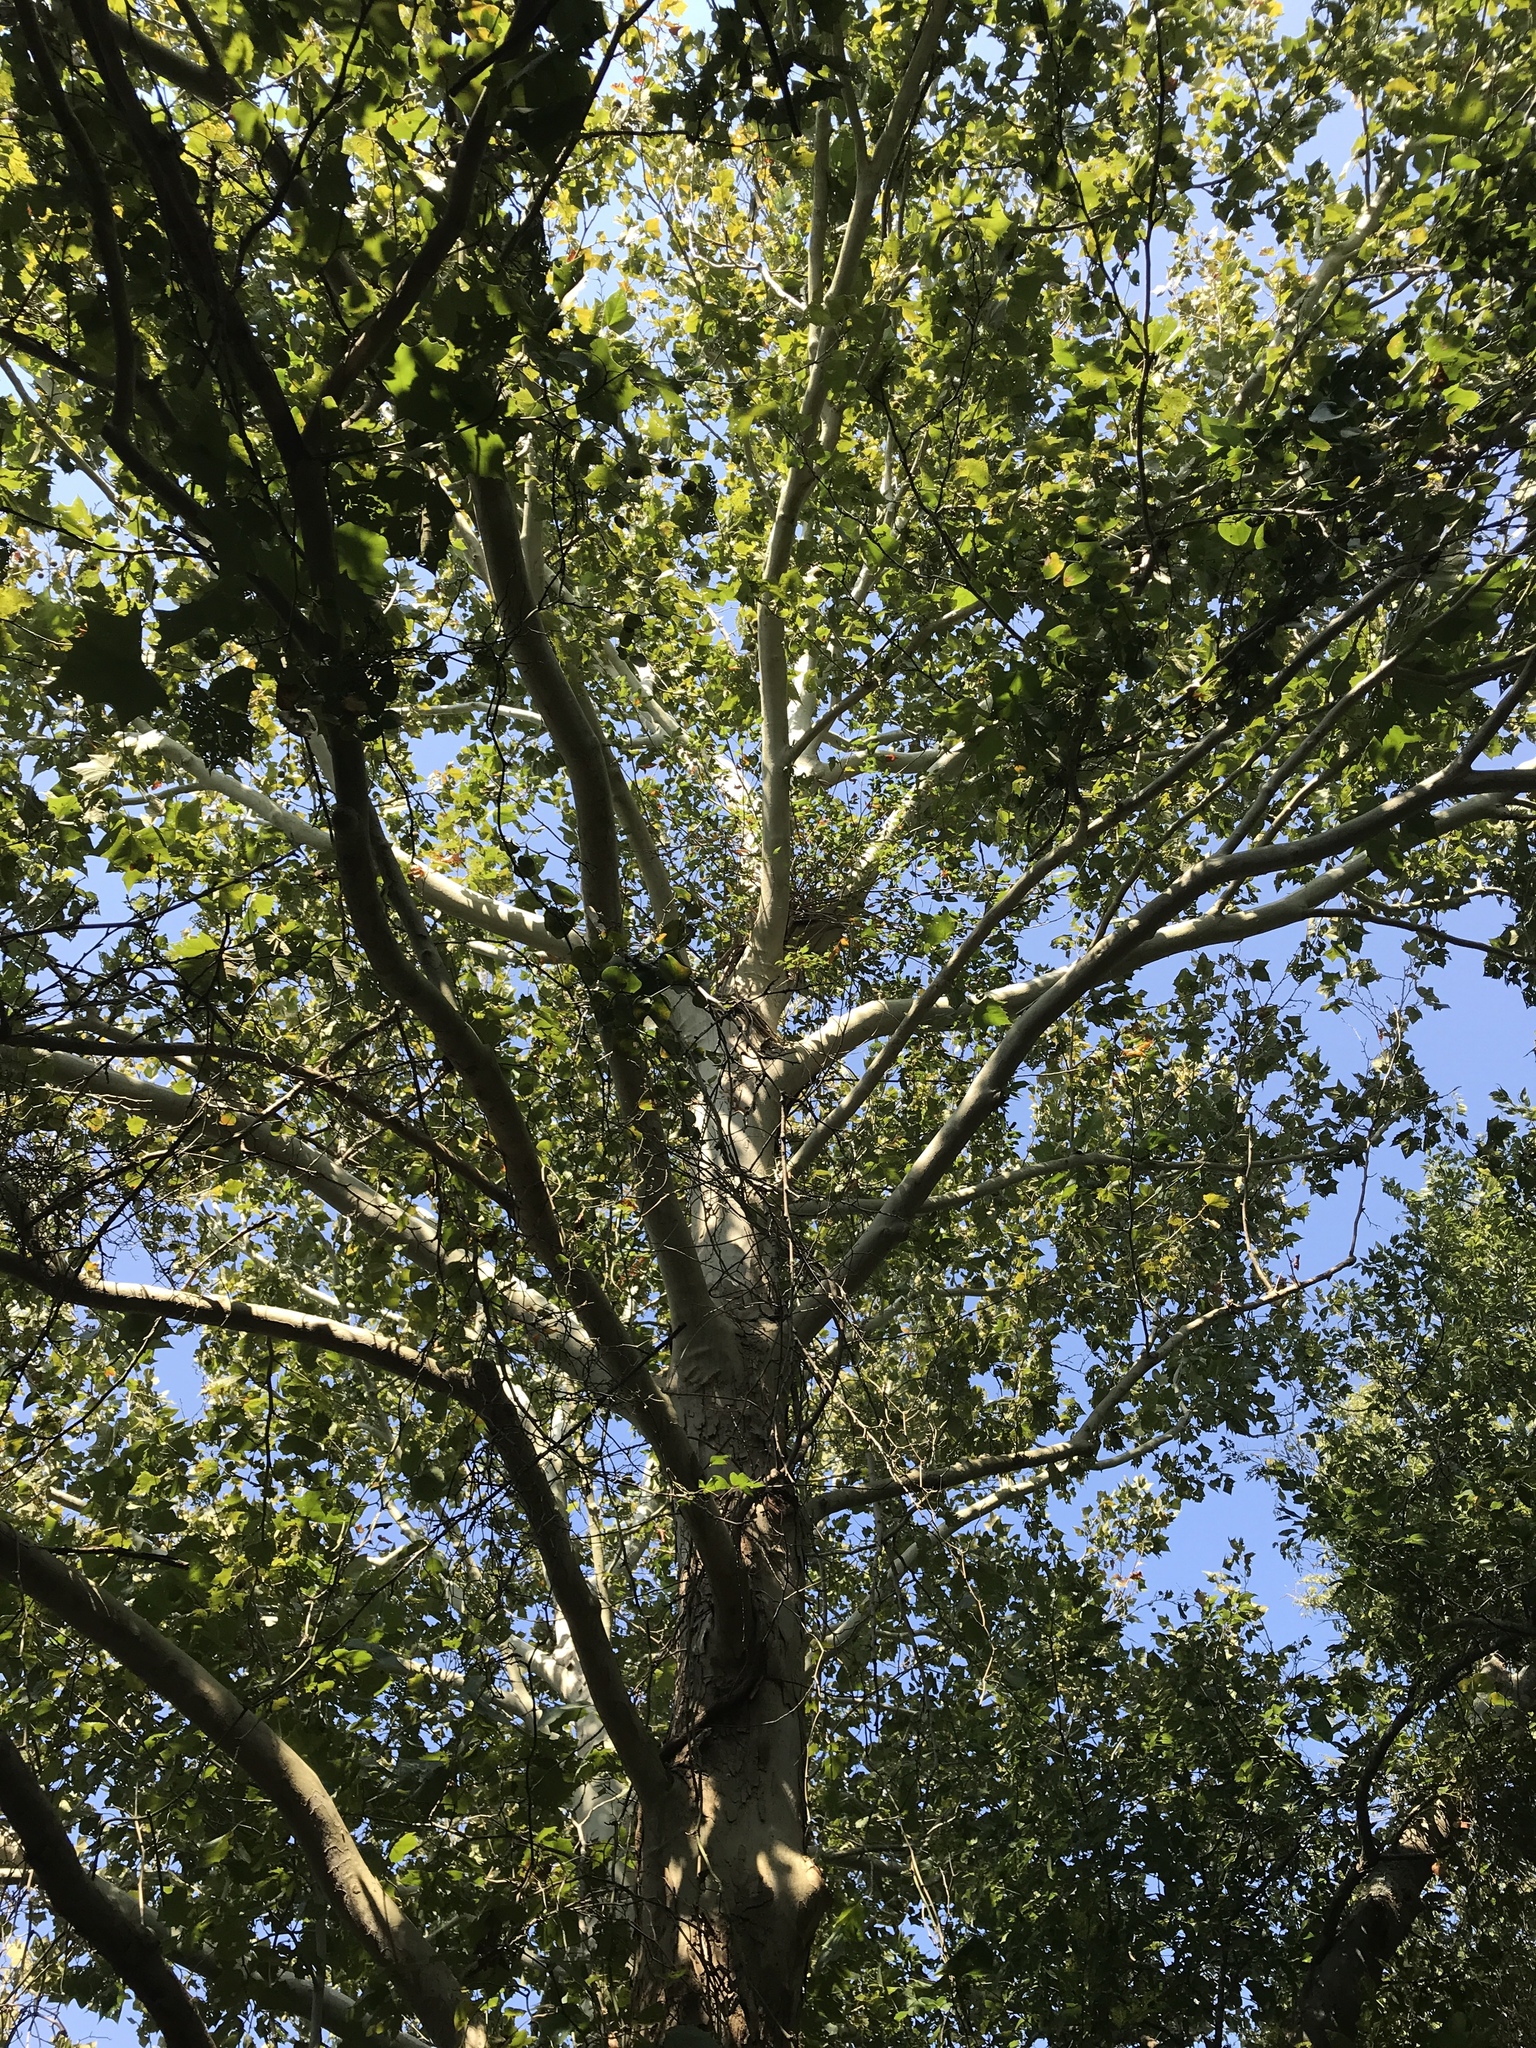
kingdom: Plantae
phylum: Tracheophyta
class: Magnoliopsida
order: Proteales
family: Platanaceae
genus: Platanus
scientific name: Platanus occidentalis
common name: American sycamore
